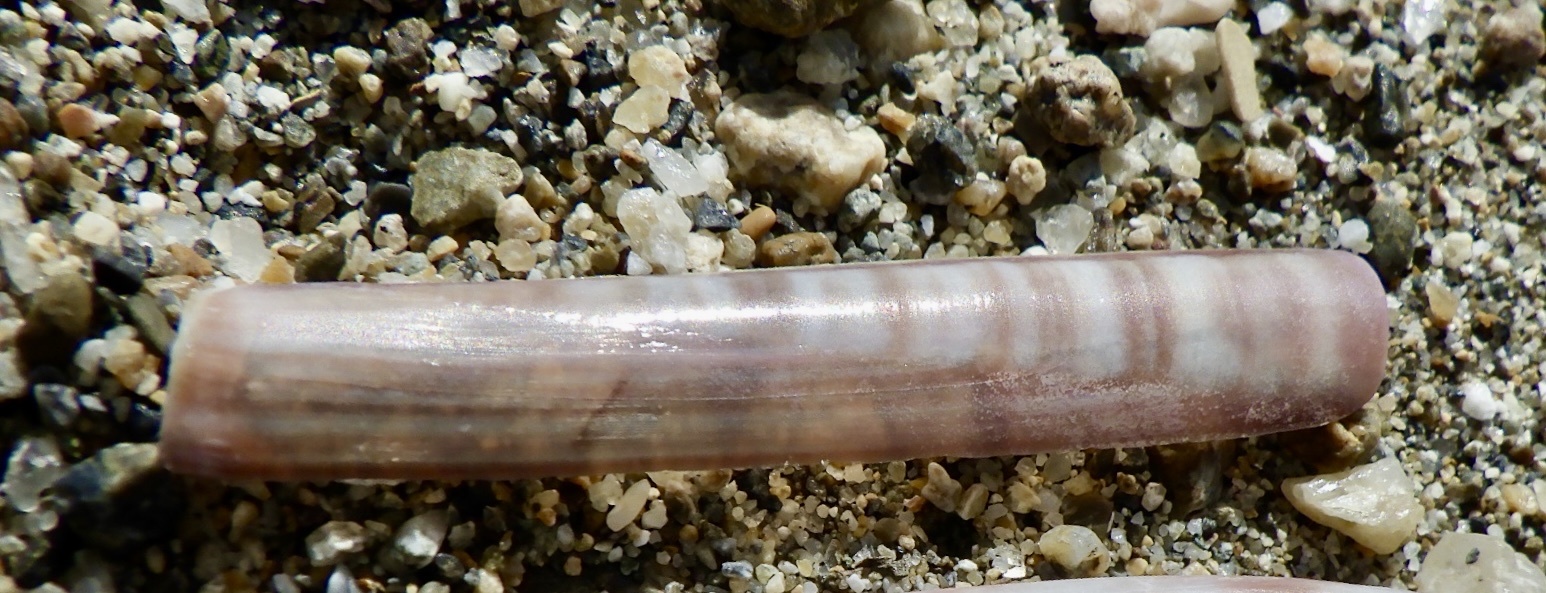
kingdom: Animalia
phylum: Mollusca
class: Bivalvia
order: Adapedonta
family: Solenidae
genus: Solen
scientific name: Solen kurodai
